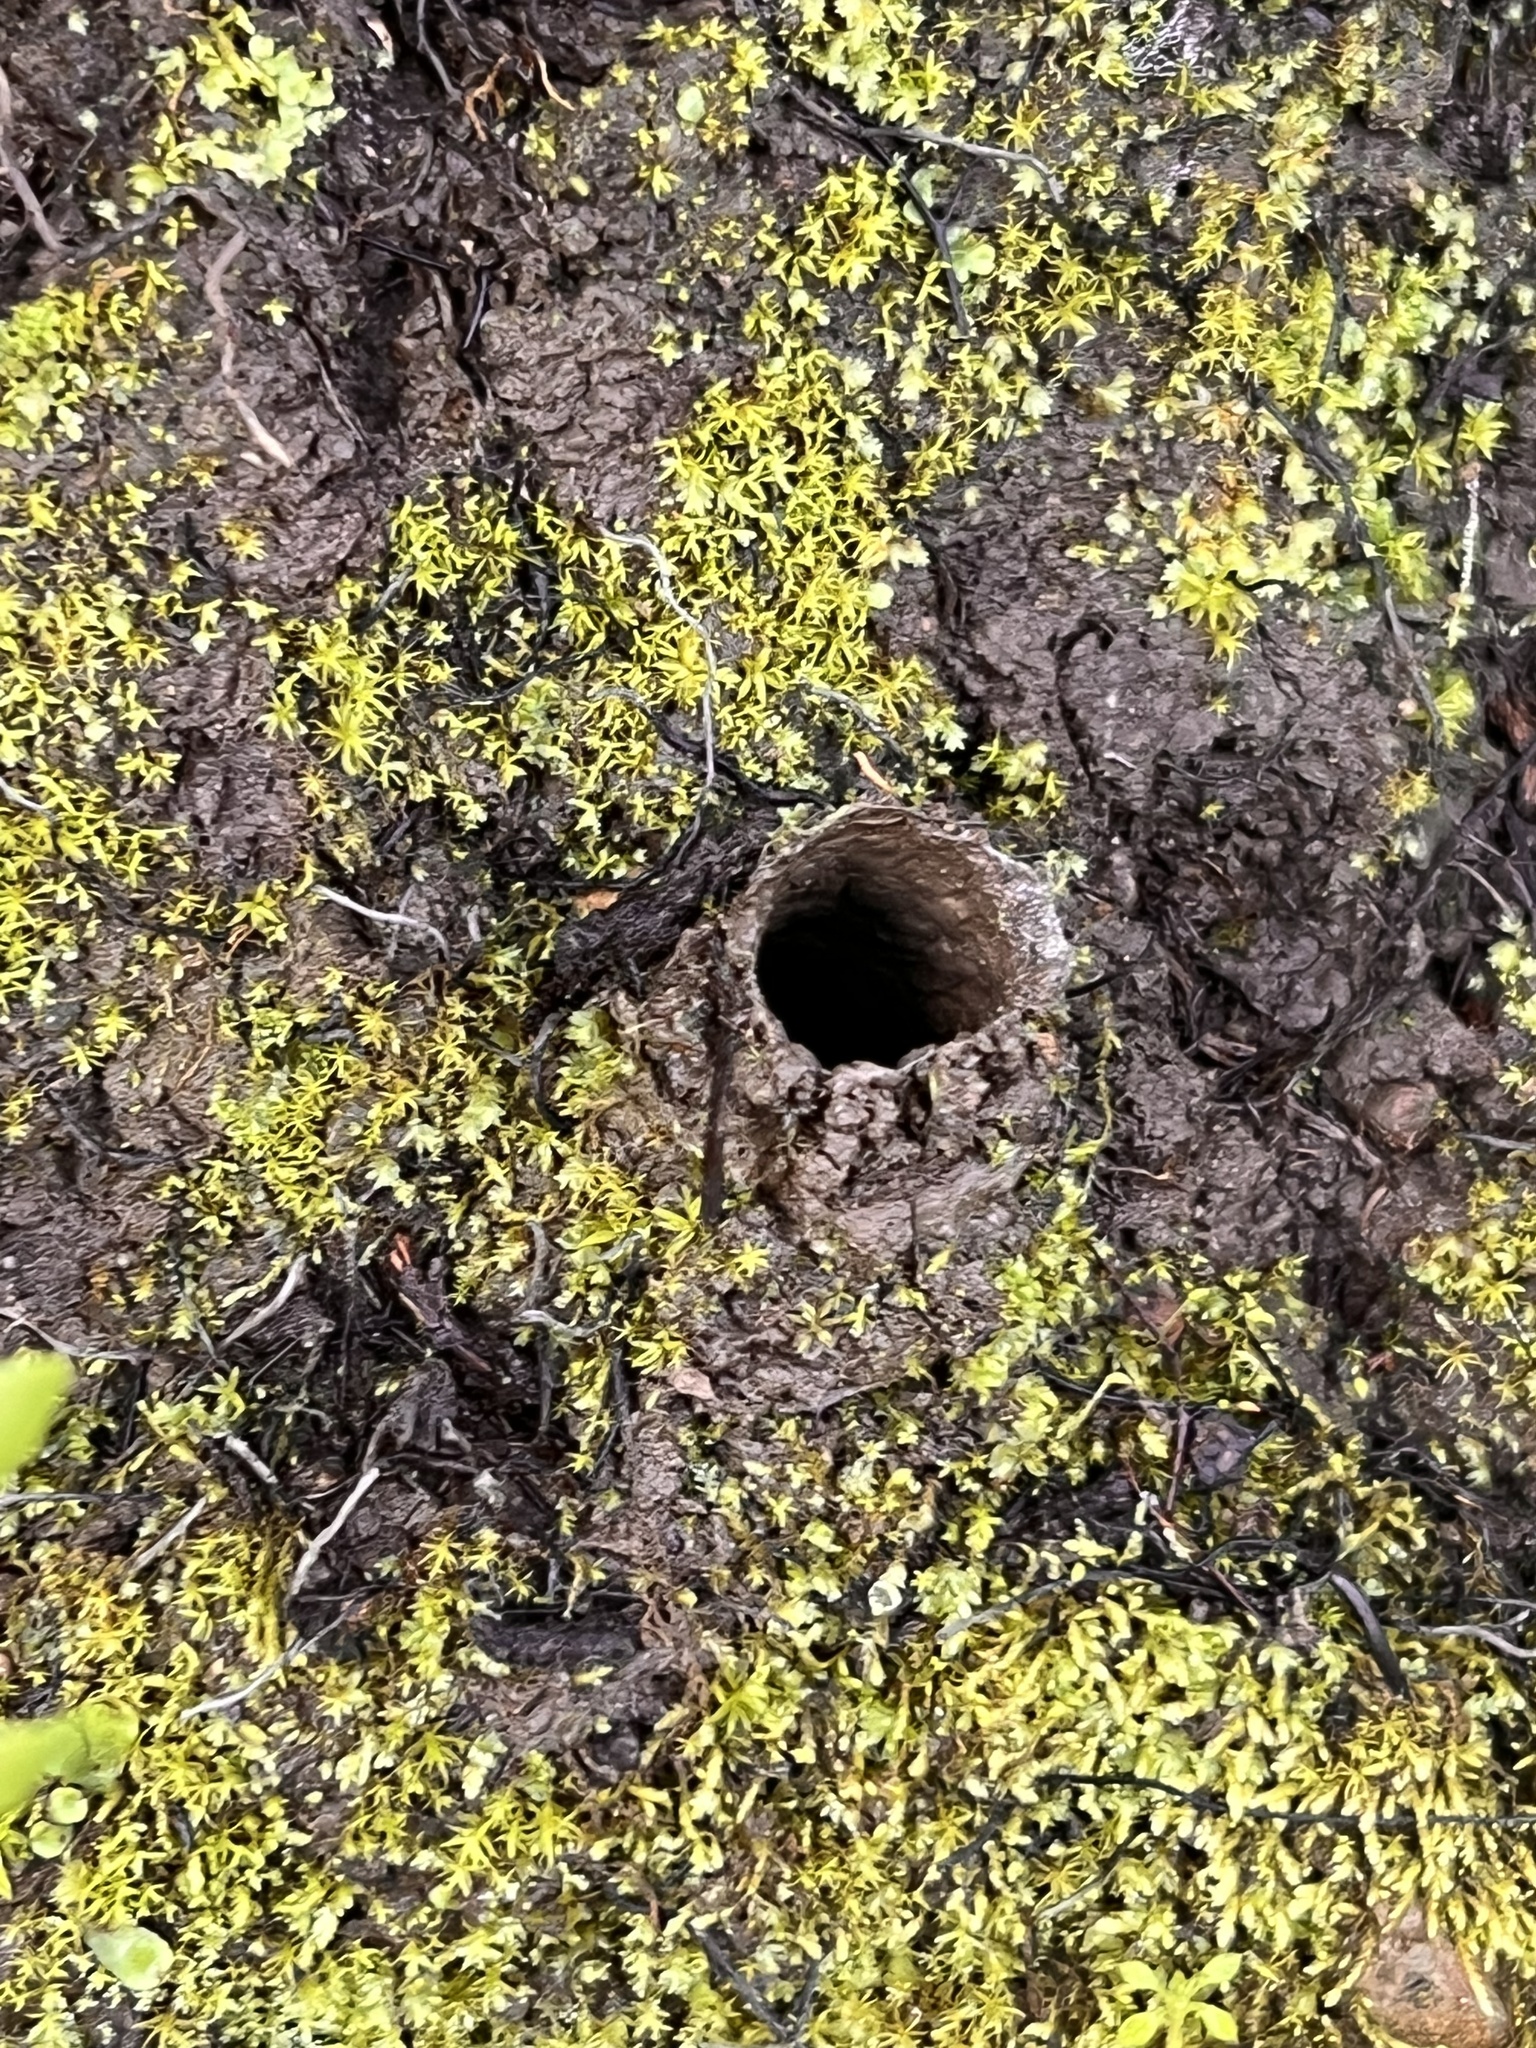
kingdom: Animalia
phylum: Arthropoda
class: Arachnida
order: Araneae
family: Antrodiaetidae
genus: Atypoides
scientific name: Atypoides riversi
